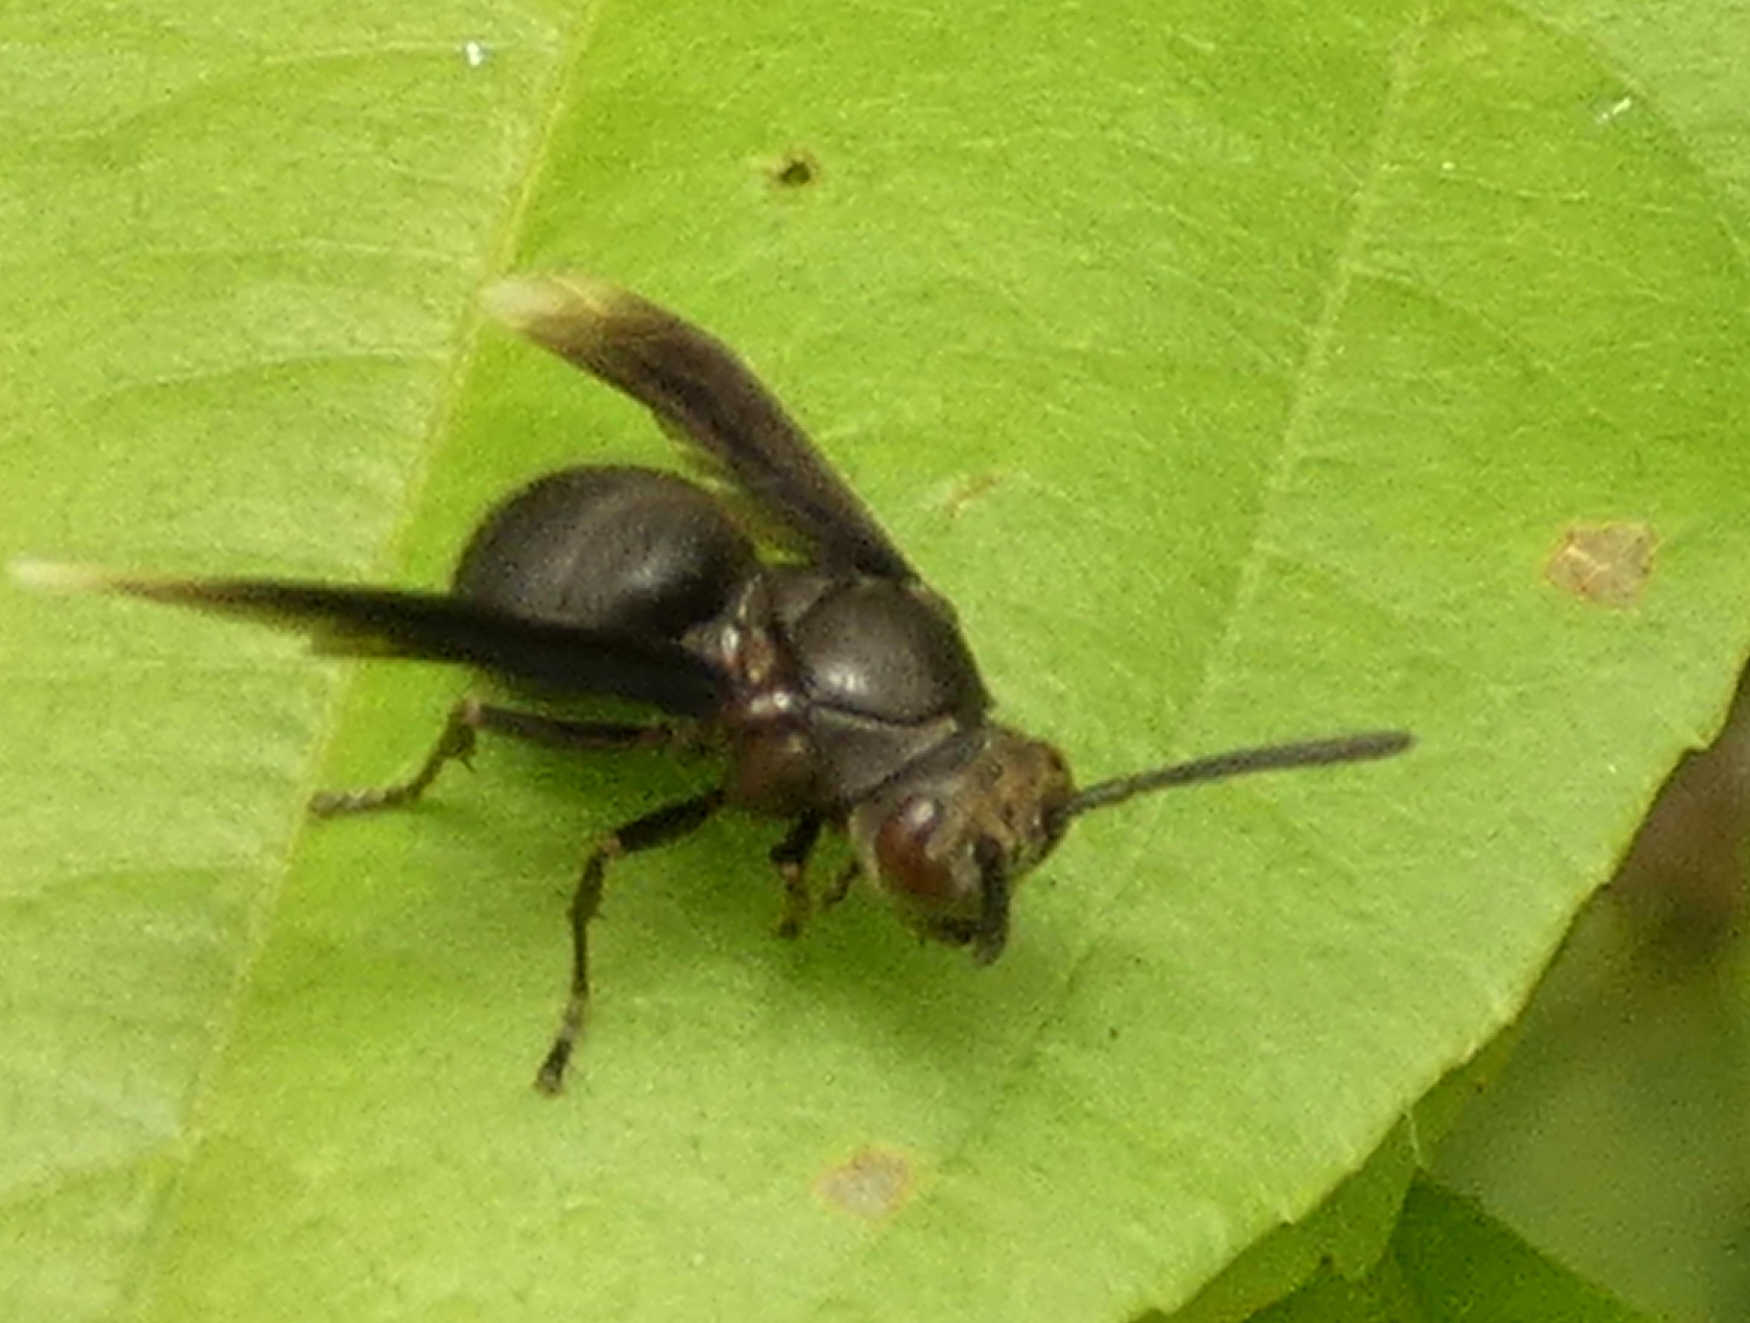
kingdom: Animalia
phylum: Arthropoda
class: Insecta
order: Hymenoptera
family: Vespidae
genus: Parachartergus
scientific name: Parachartergus fraternus
